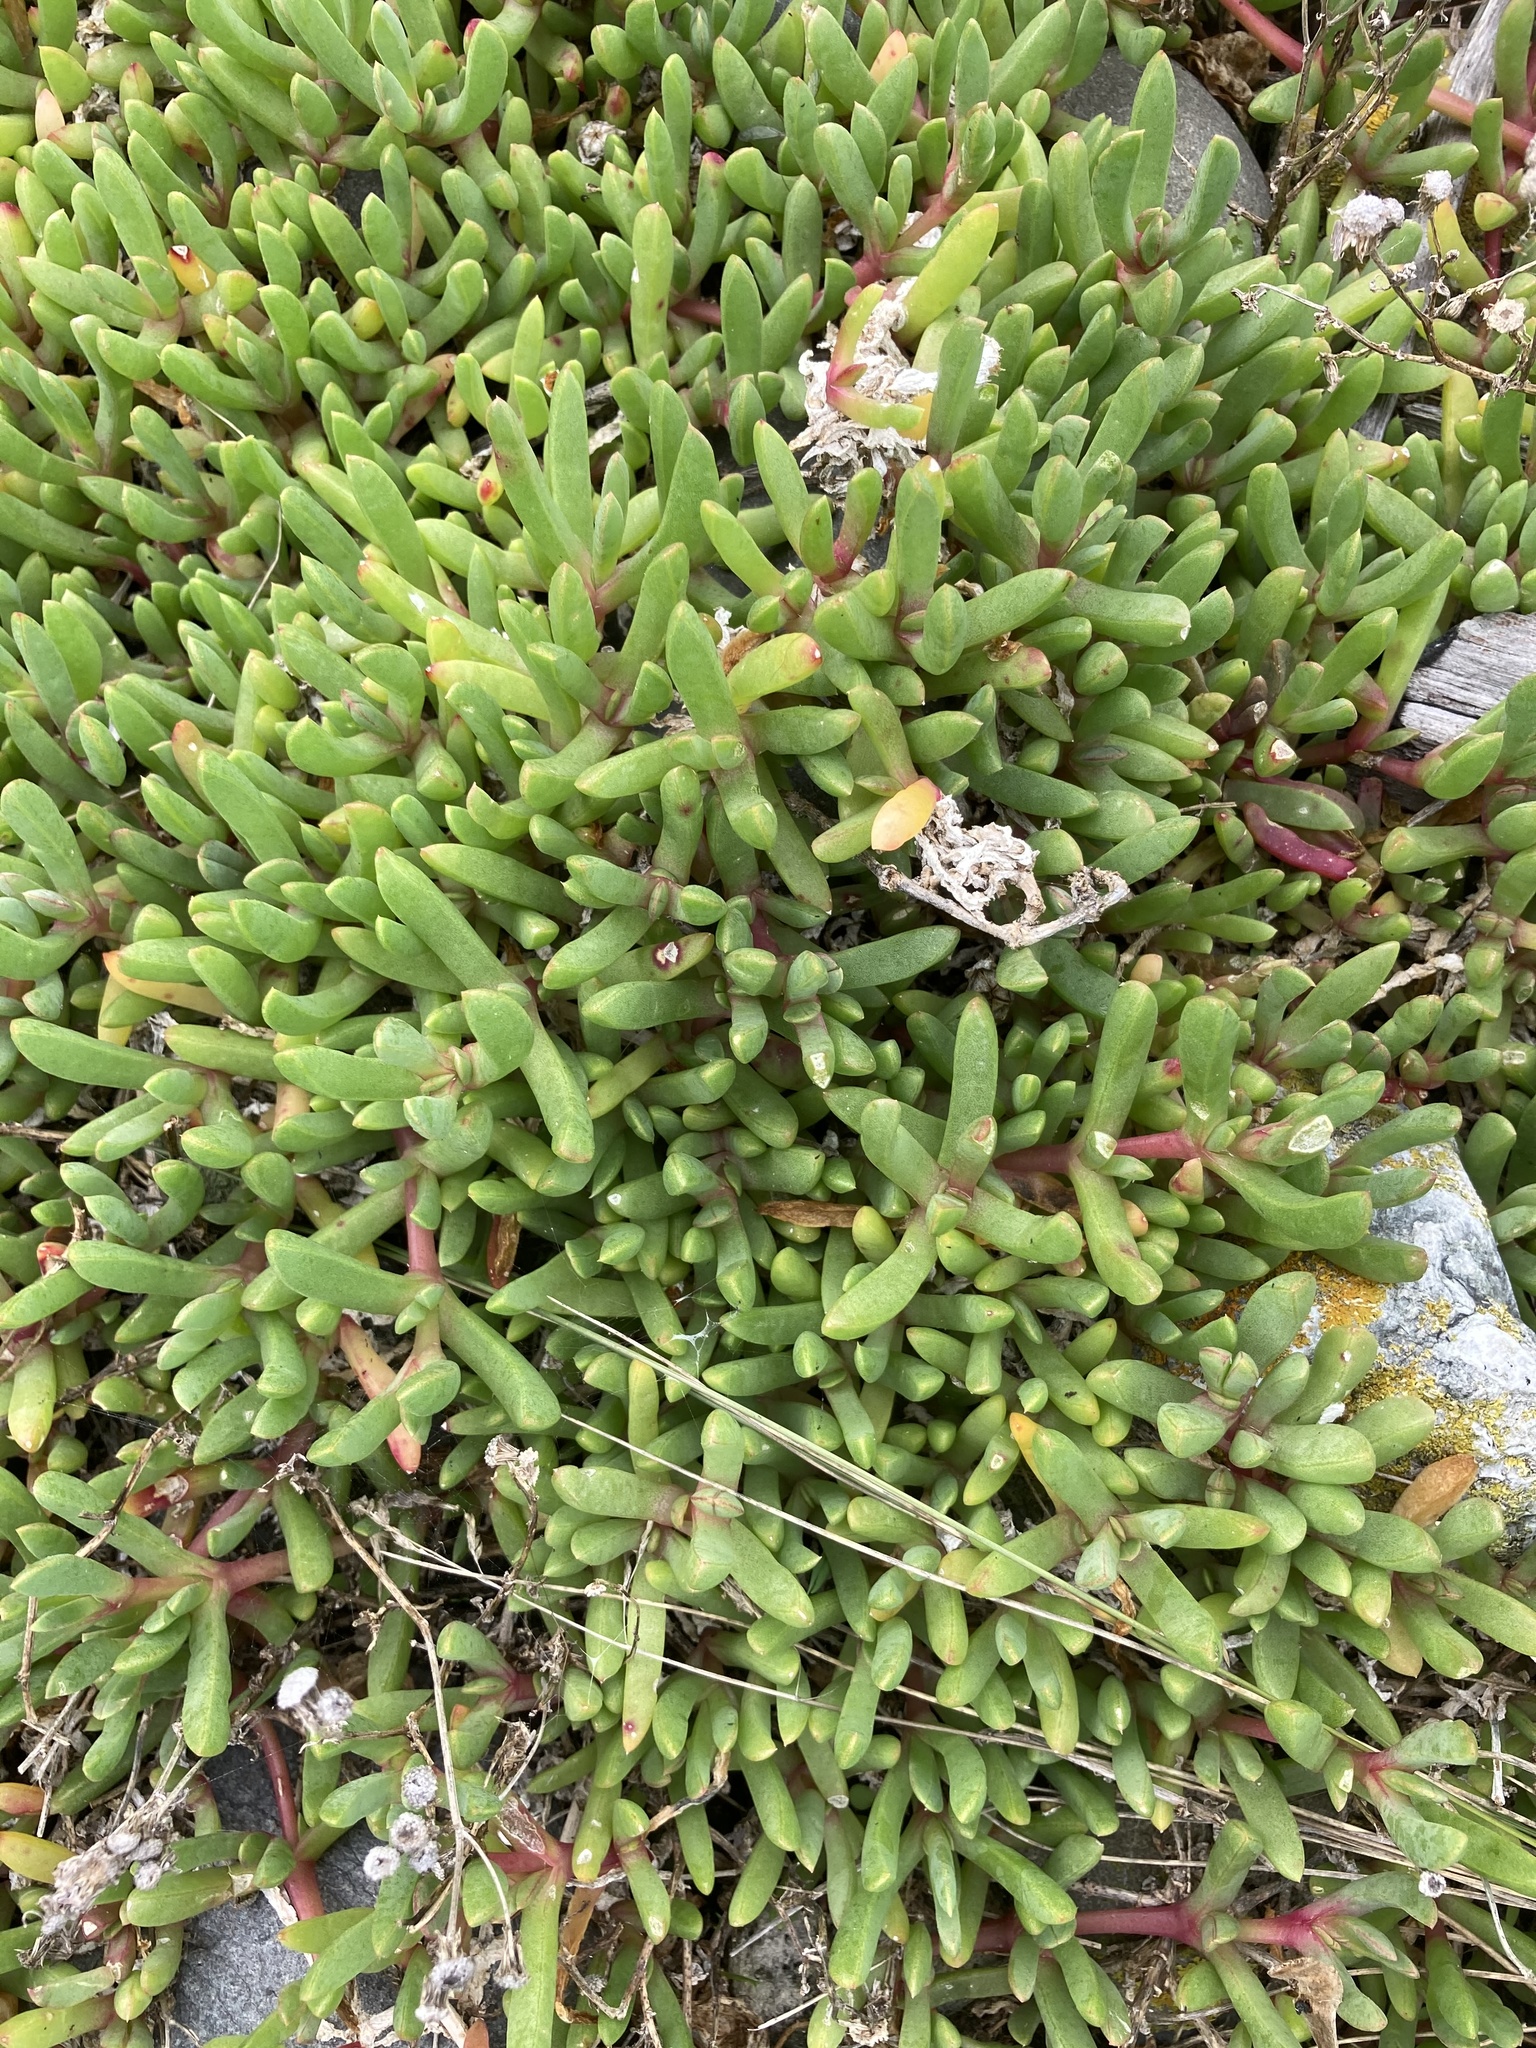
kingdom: Plantae
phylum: Tracheophyta
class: Magnoliopsida
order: Caryophyllales
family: Aizoaceae
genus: Disphyma
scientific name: Disphyma australe
